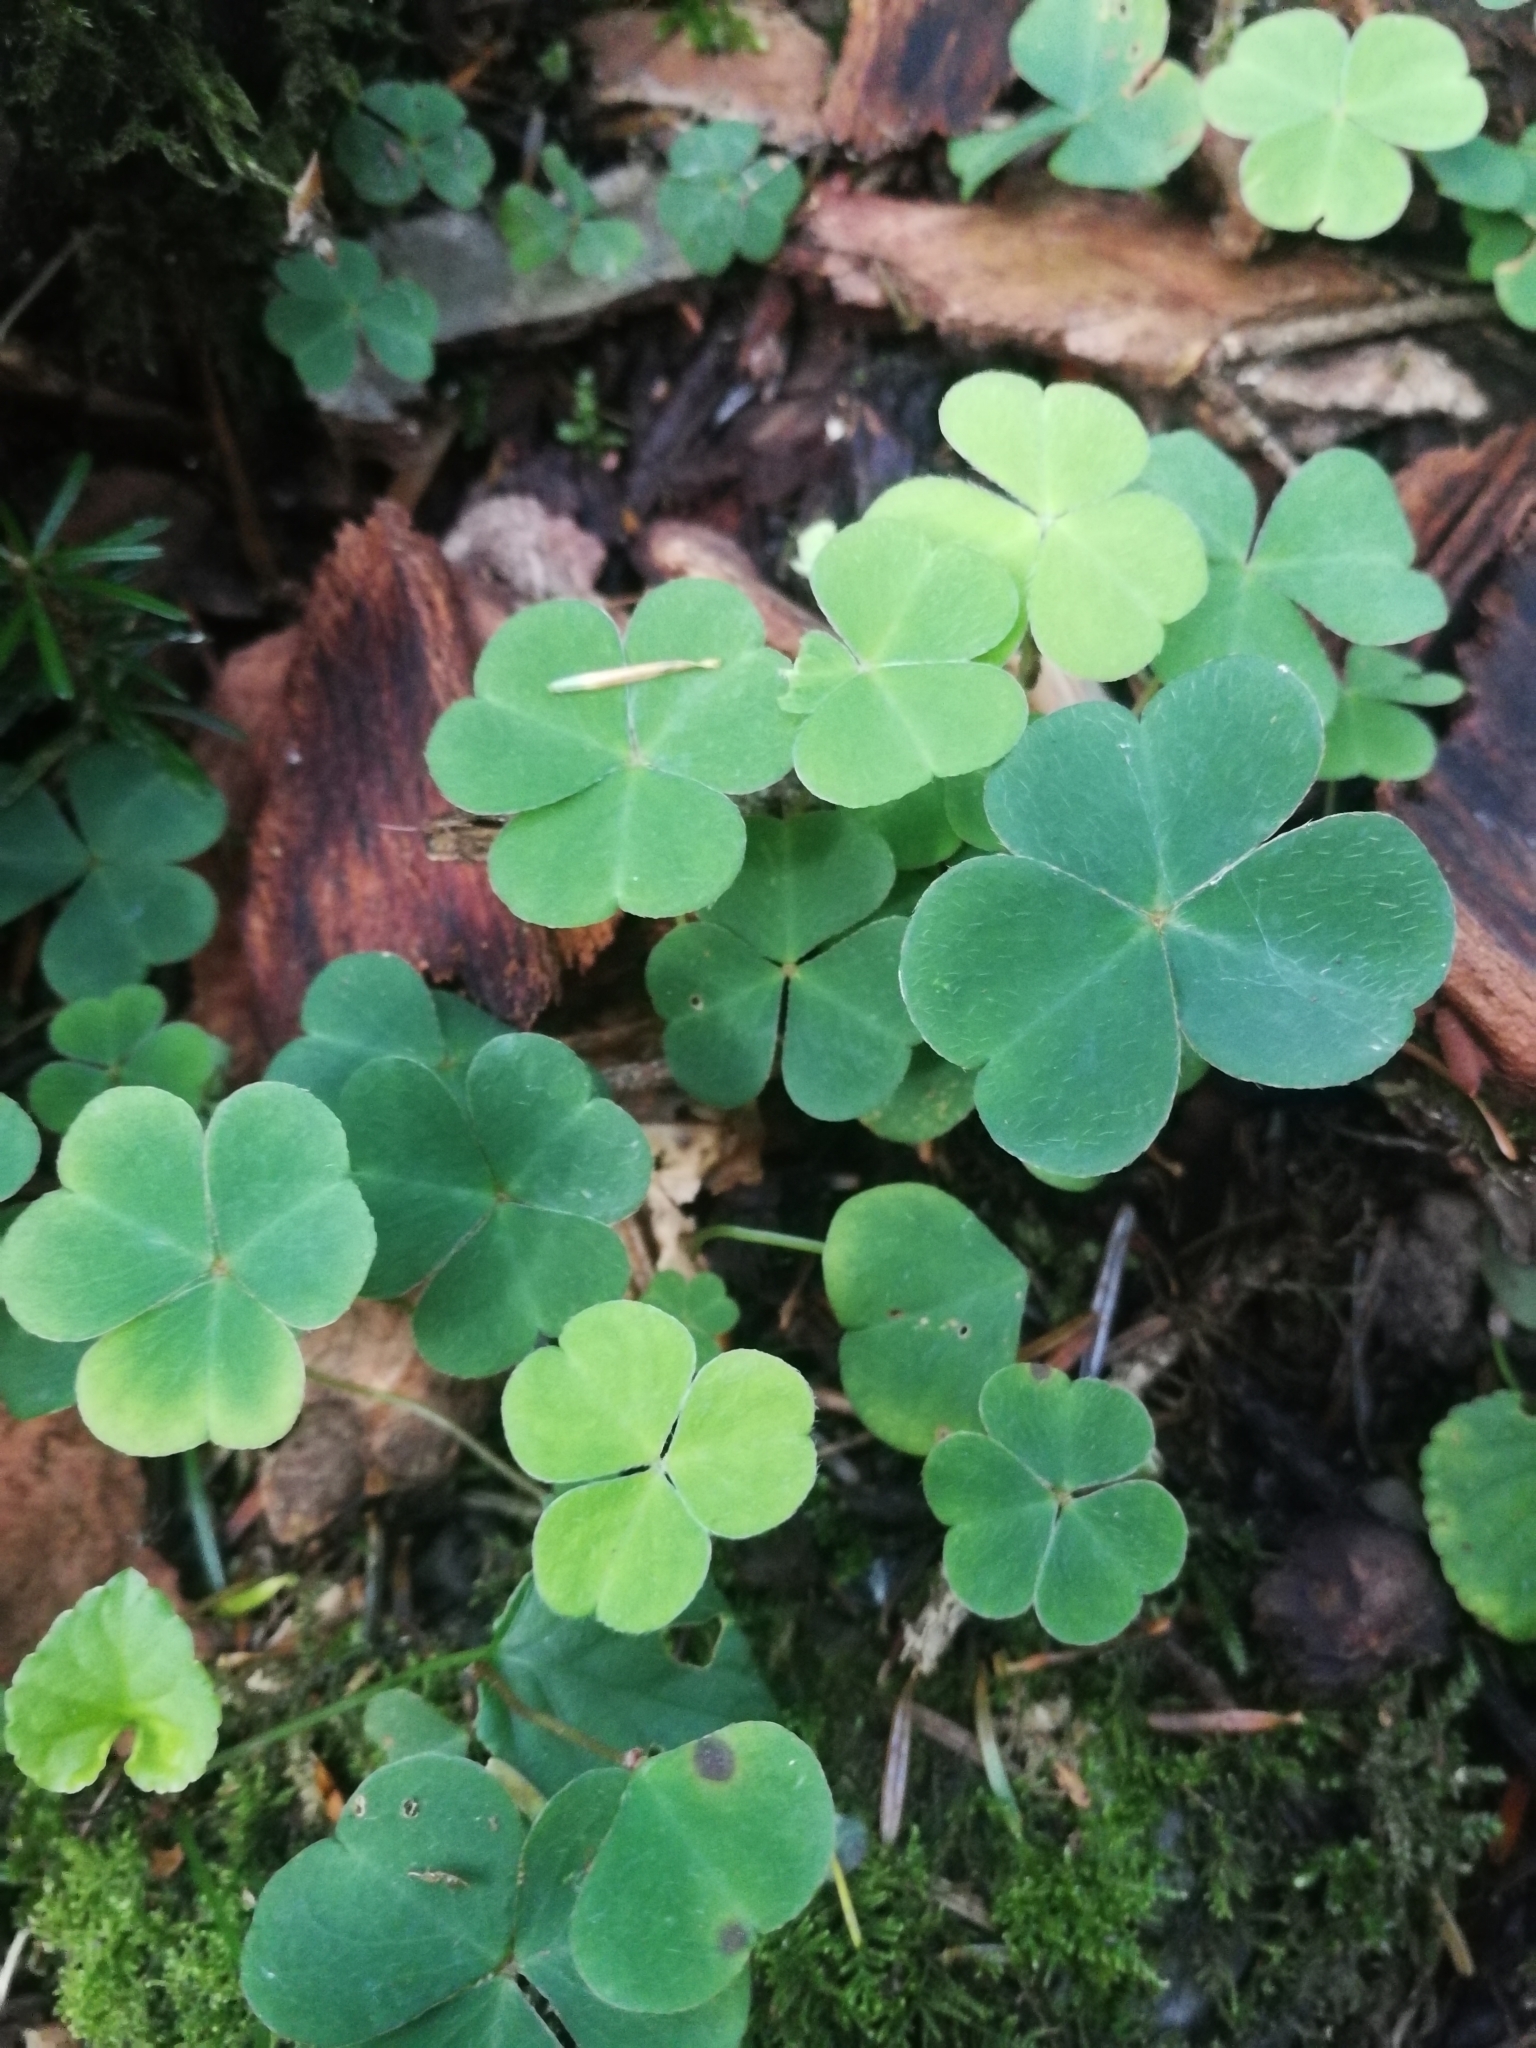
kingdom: Plantae
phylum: Tracheophyta
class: Magnoliopsida
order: Oxalidales
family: Oxalidaceae
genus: Oxalis
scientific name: Oxalis acetosella
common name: Wood-sorrel
